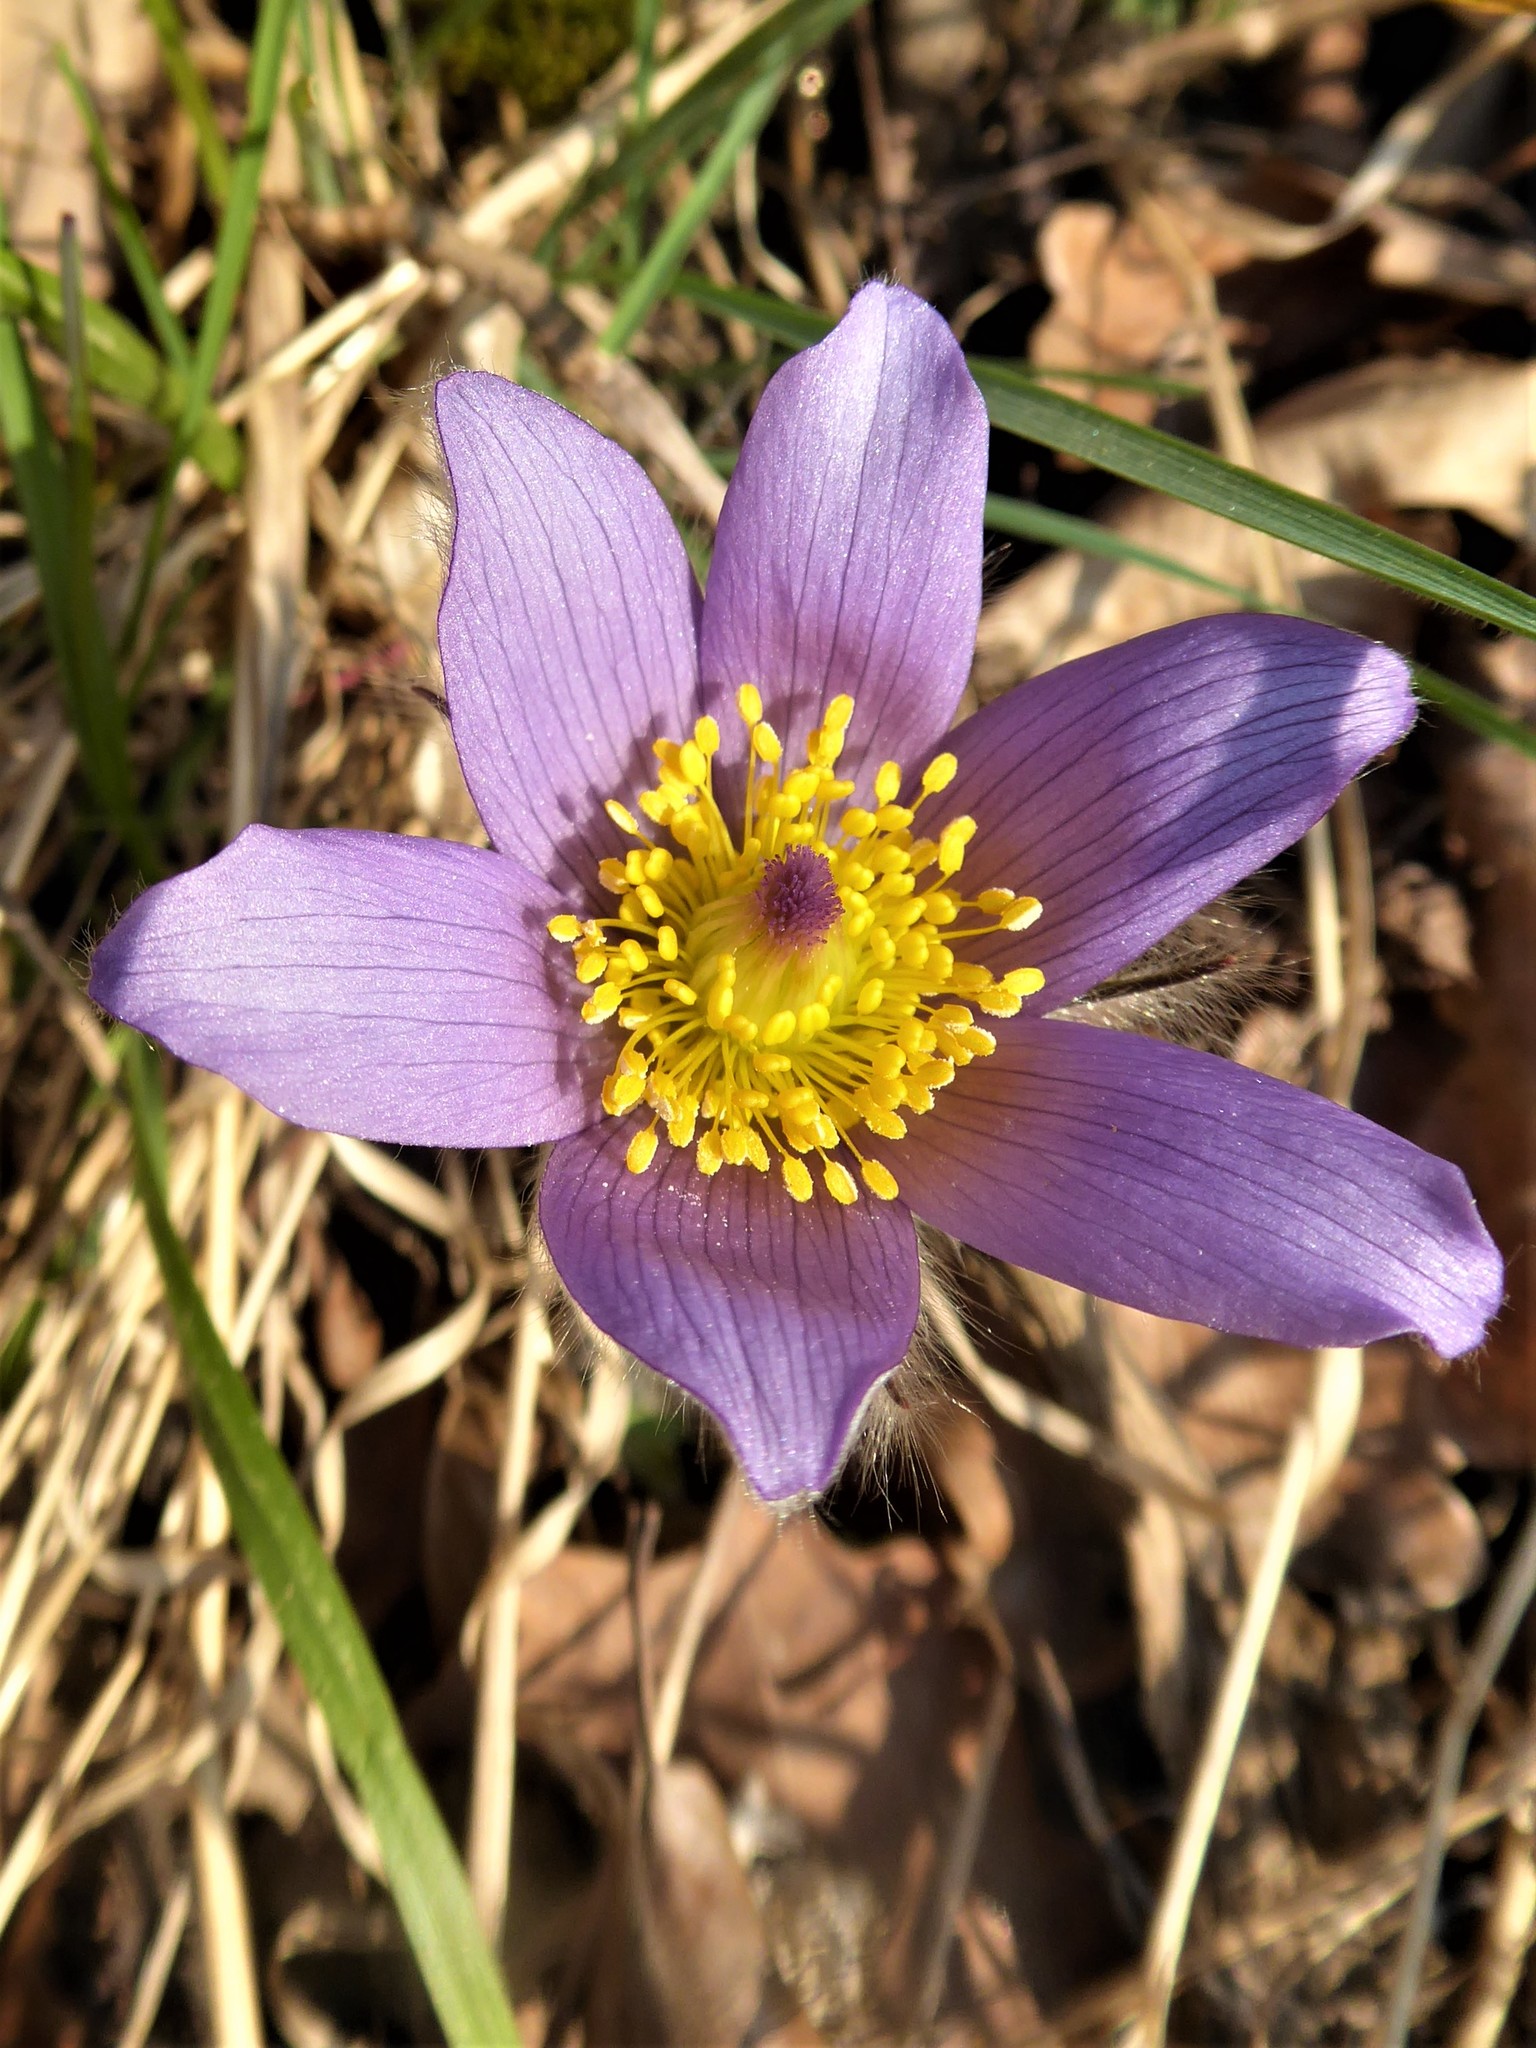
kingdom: Plantae
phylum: Tracheophyta
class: Magnoliopsida
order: Ranunculales
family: Ranunculaceae
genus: Pulsatilla
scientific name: Pulsatilla grandis
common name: Greater pasque flower
